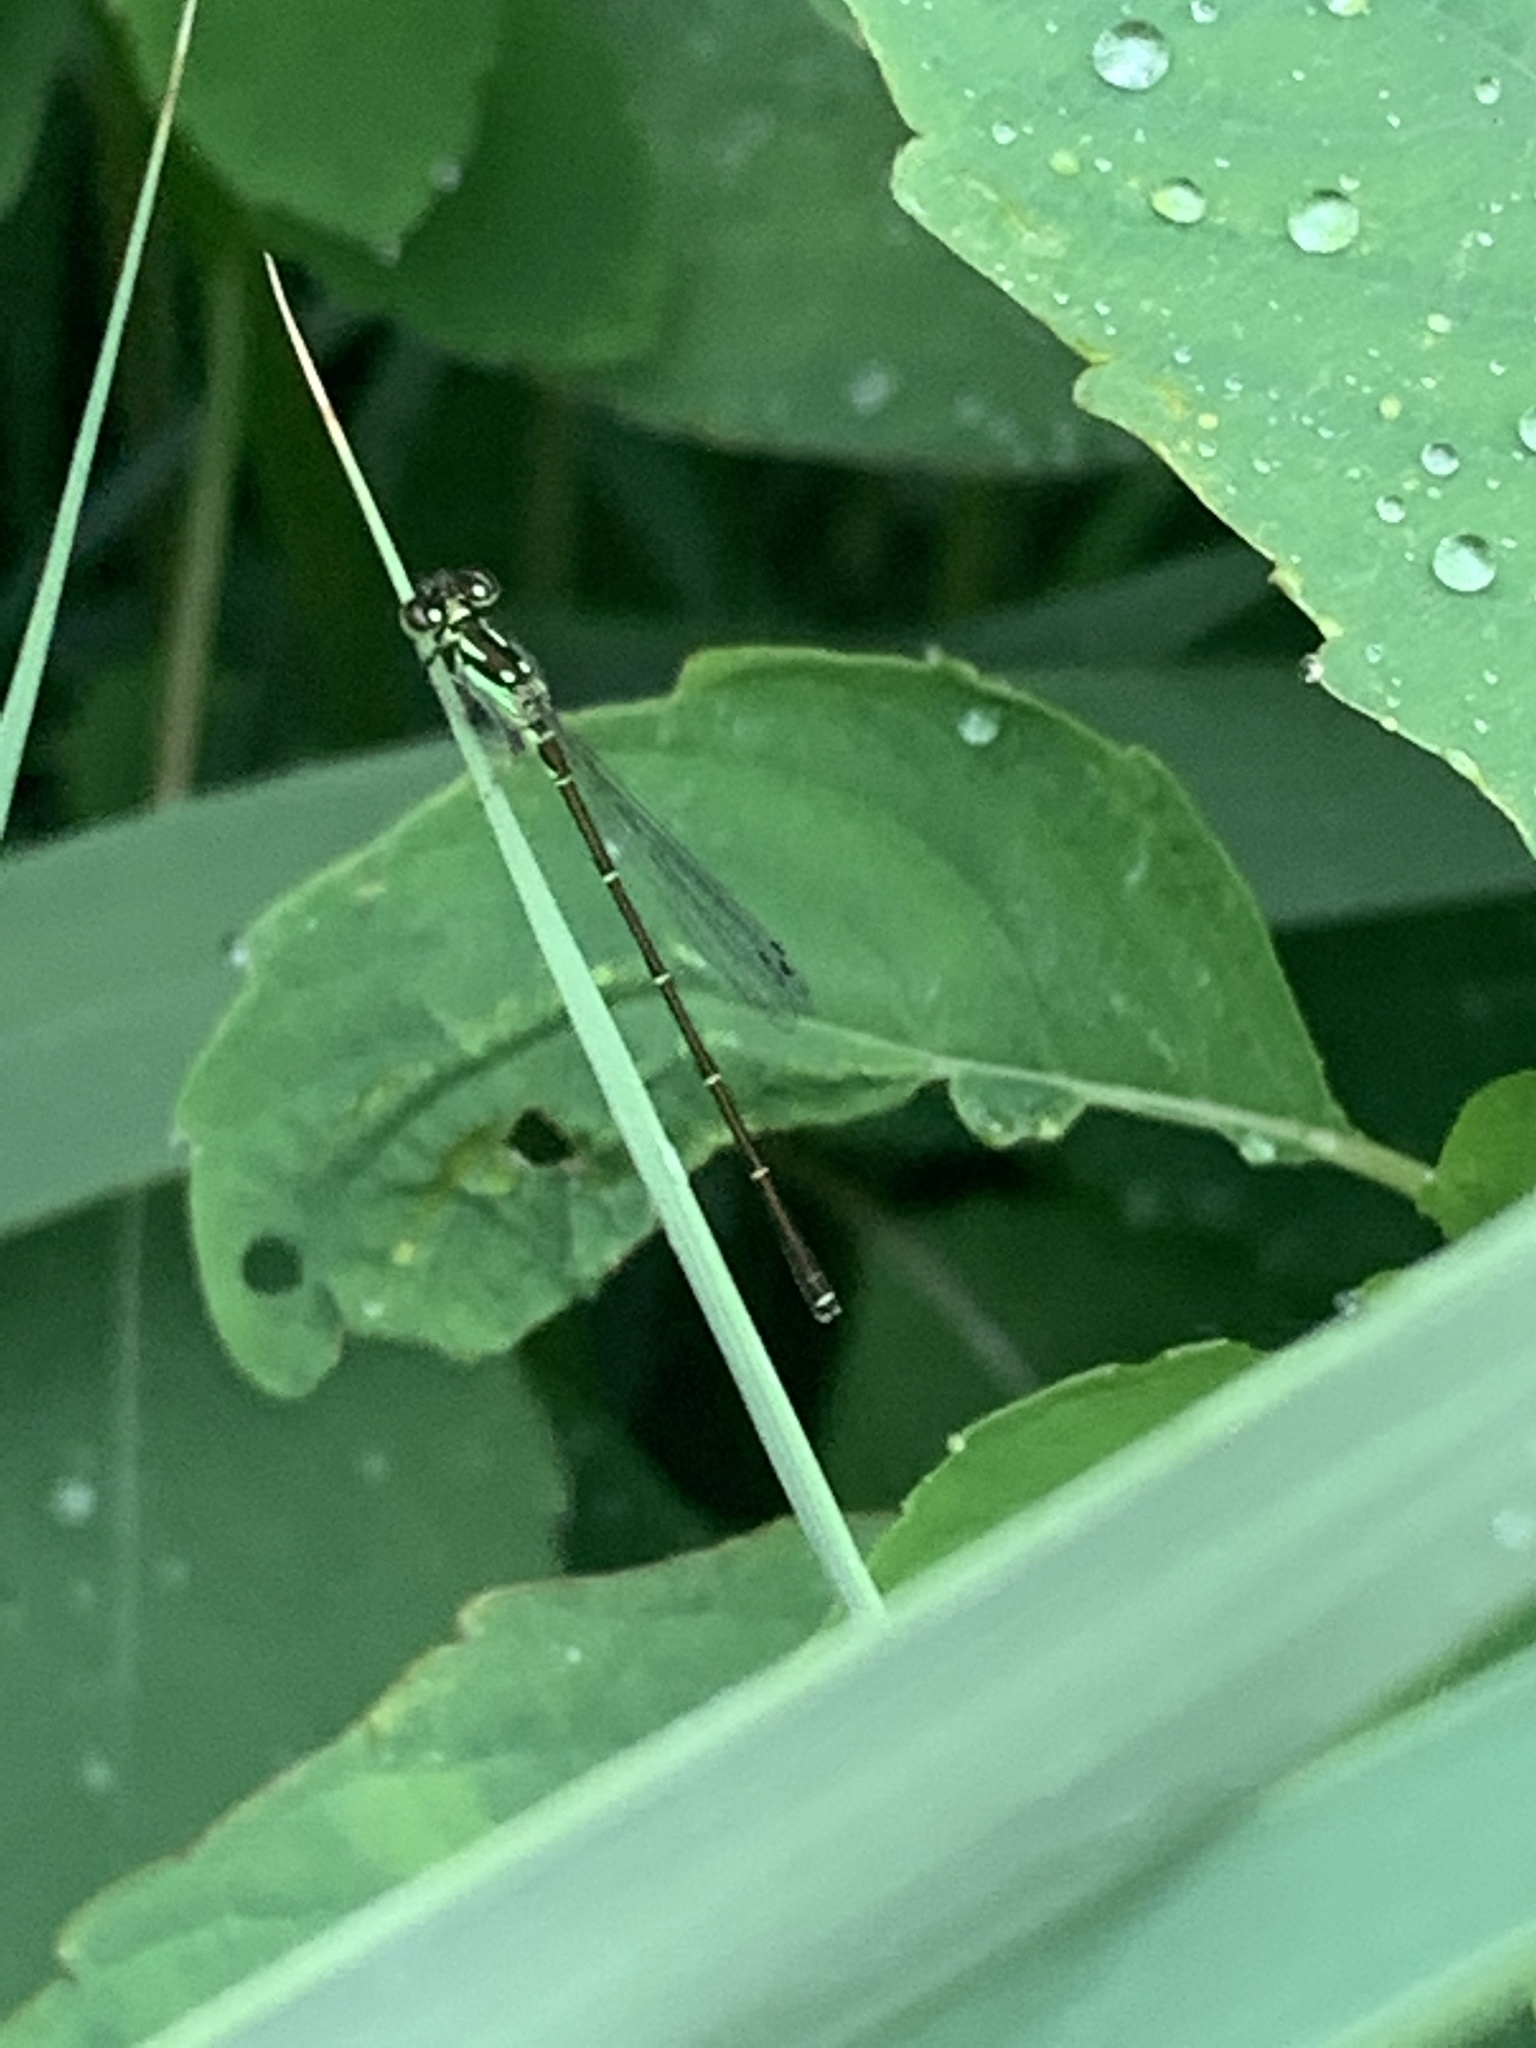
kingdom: Animalia
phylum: Arthropoda
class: Insecta
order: Odonata
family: Coenagrionidae
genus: Ischnura
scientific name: Ischnura posita
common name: Fragile forktail
